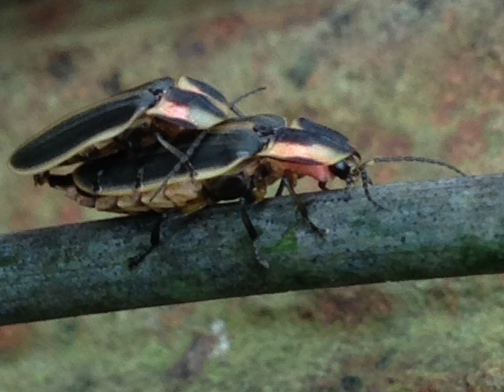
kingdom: Animalia
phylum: Arthropoda
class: Insecta
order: Coleoptera
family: Lampyridae
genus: Pyractomena
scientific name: Pyractomena angulata
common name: Candle firefly
